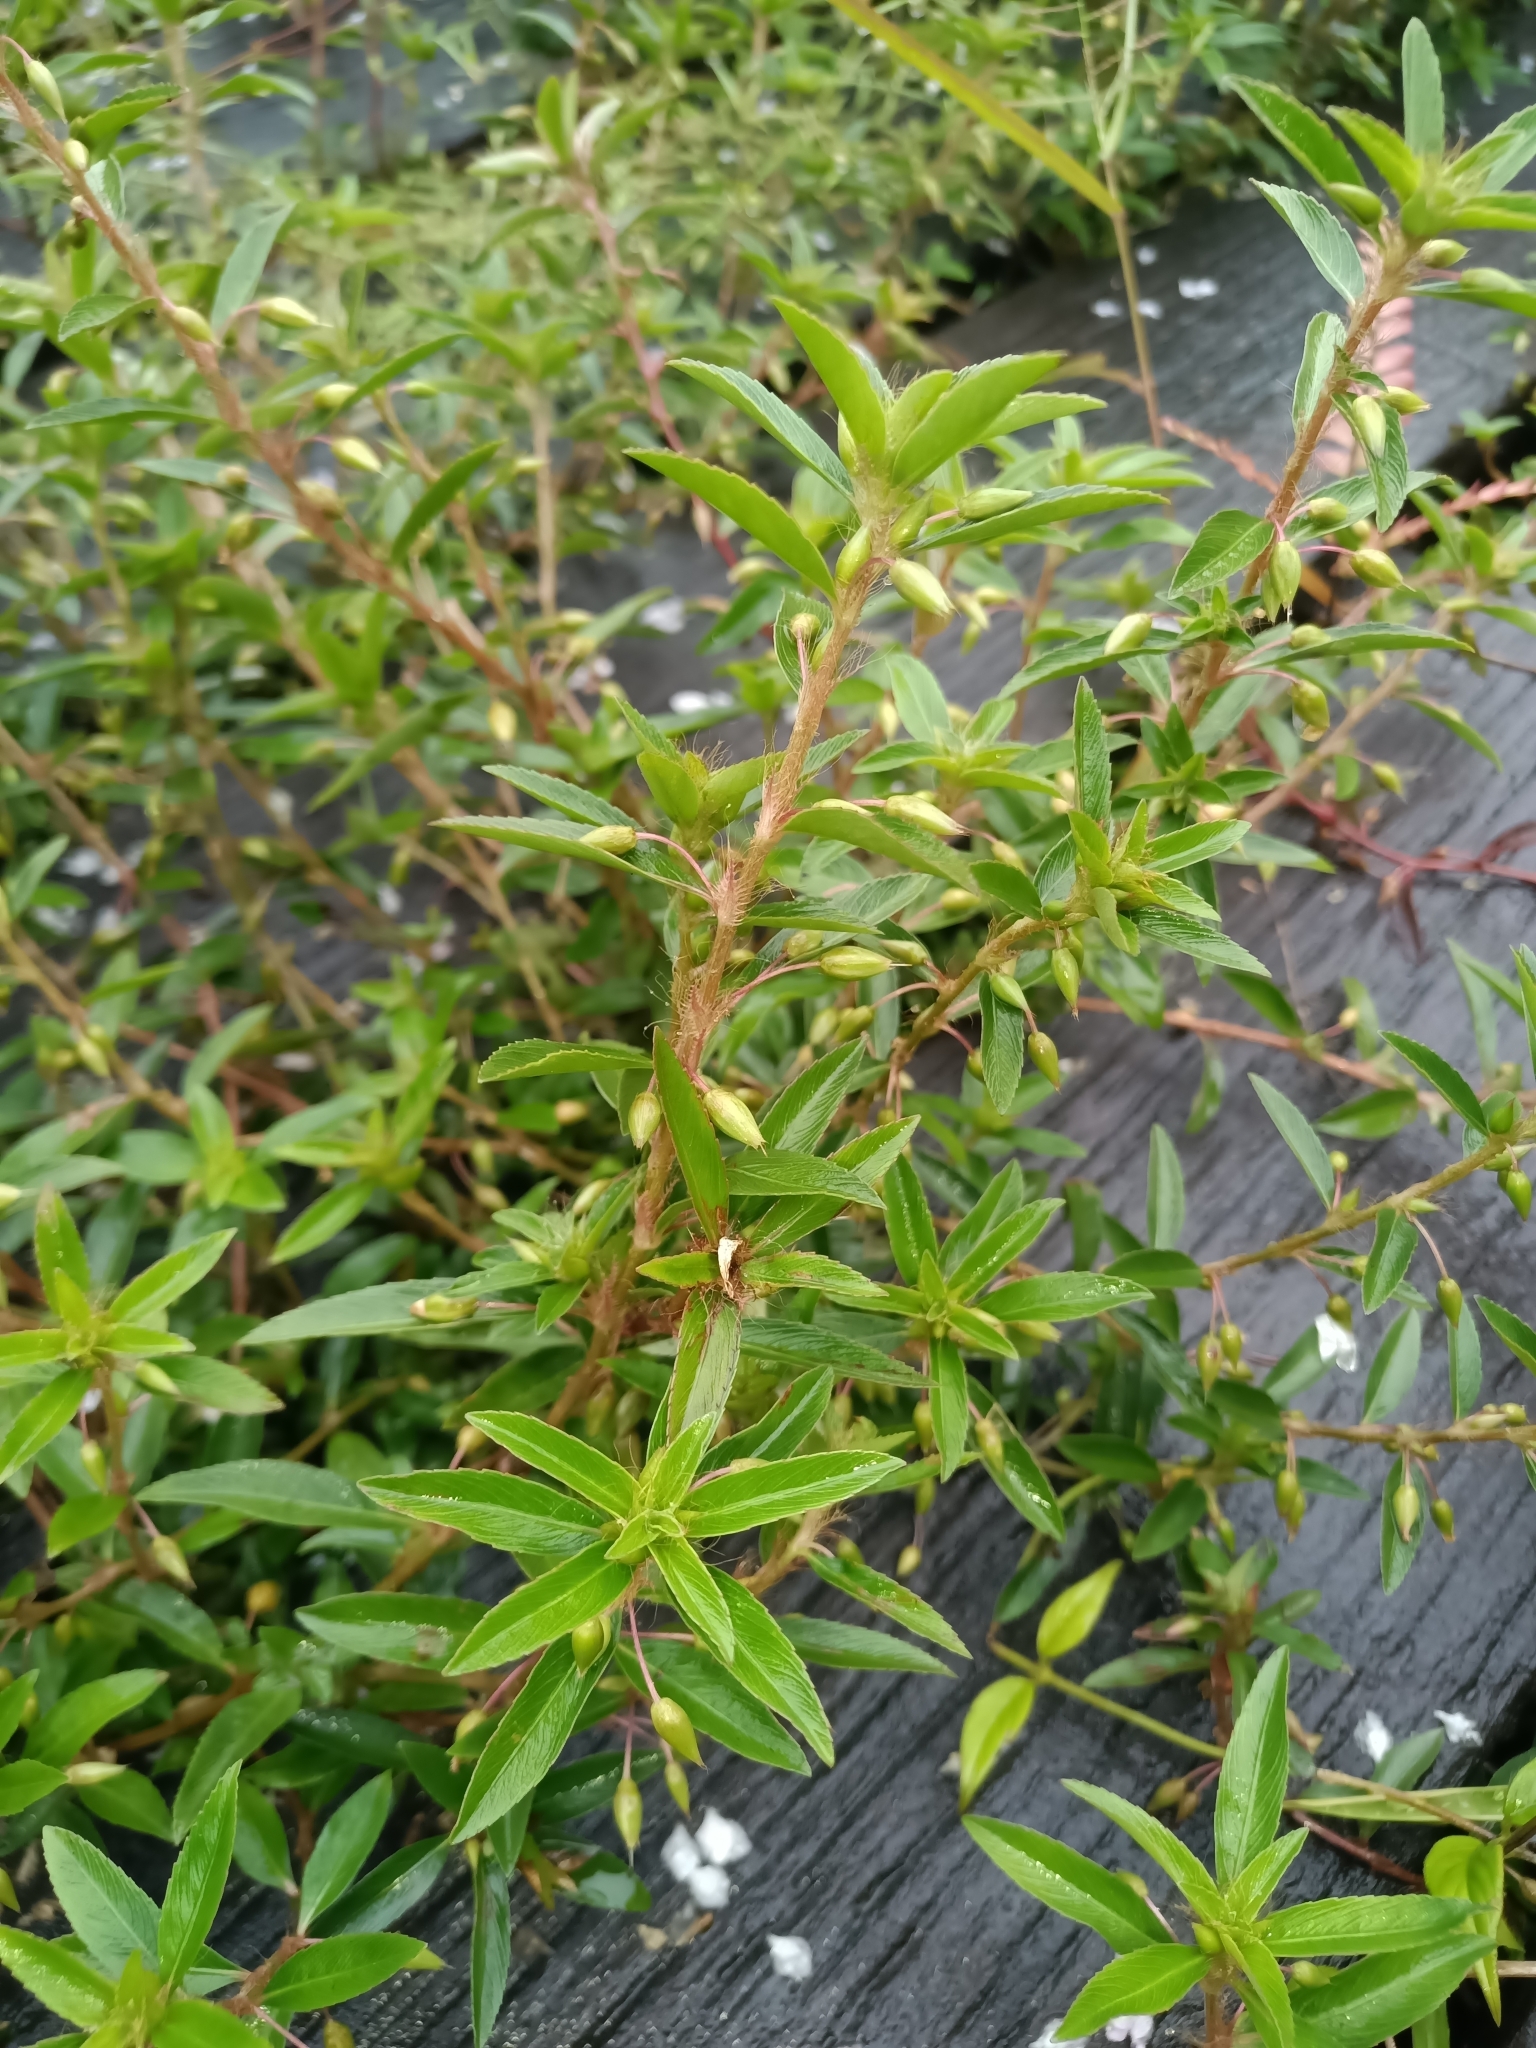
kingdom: Plantae
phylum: Tracheophyta
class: Magnoliopsida
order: Malpighiales
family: Ochnaceae
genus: Sauvagesia
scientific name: Sauvagesia erecta
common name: Creole tea
